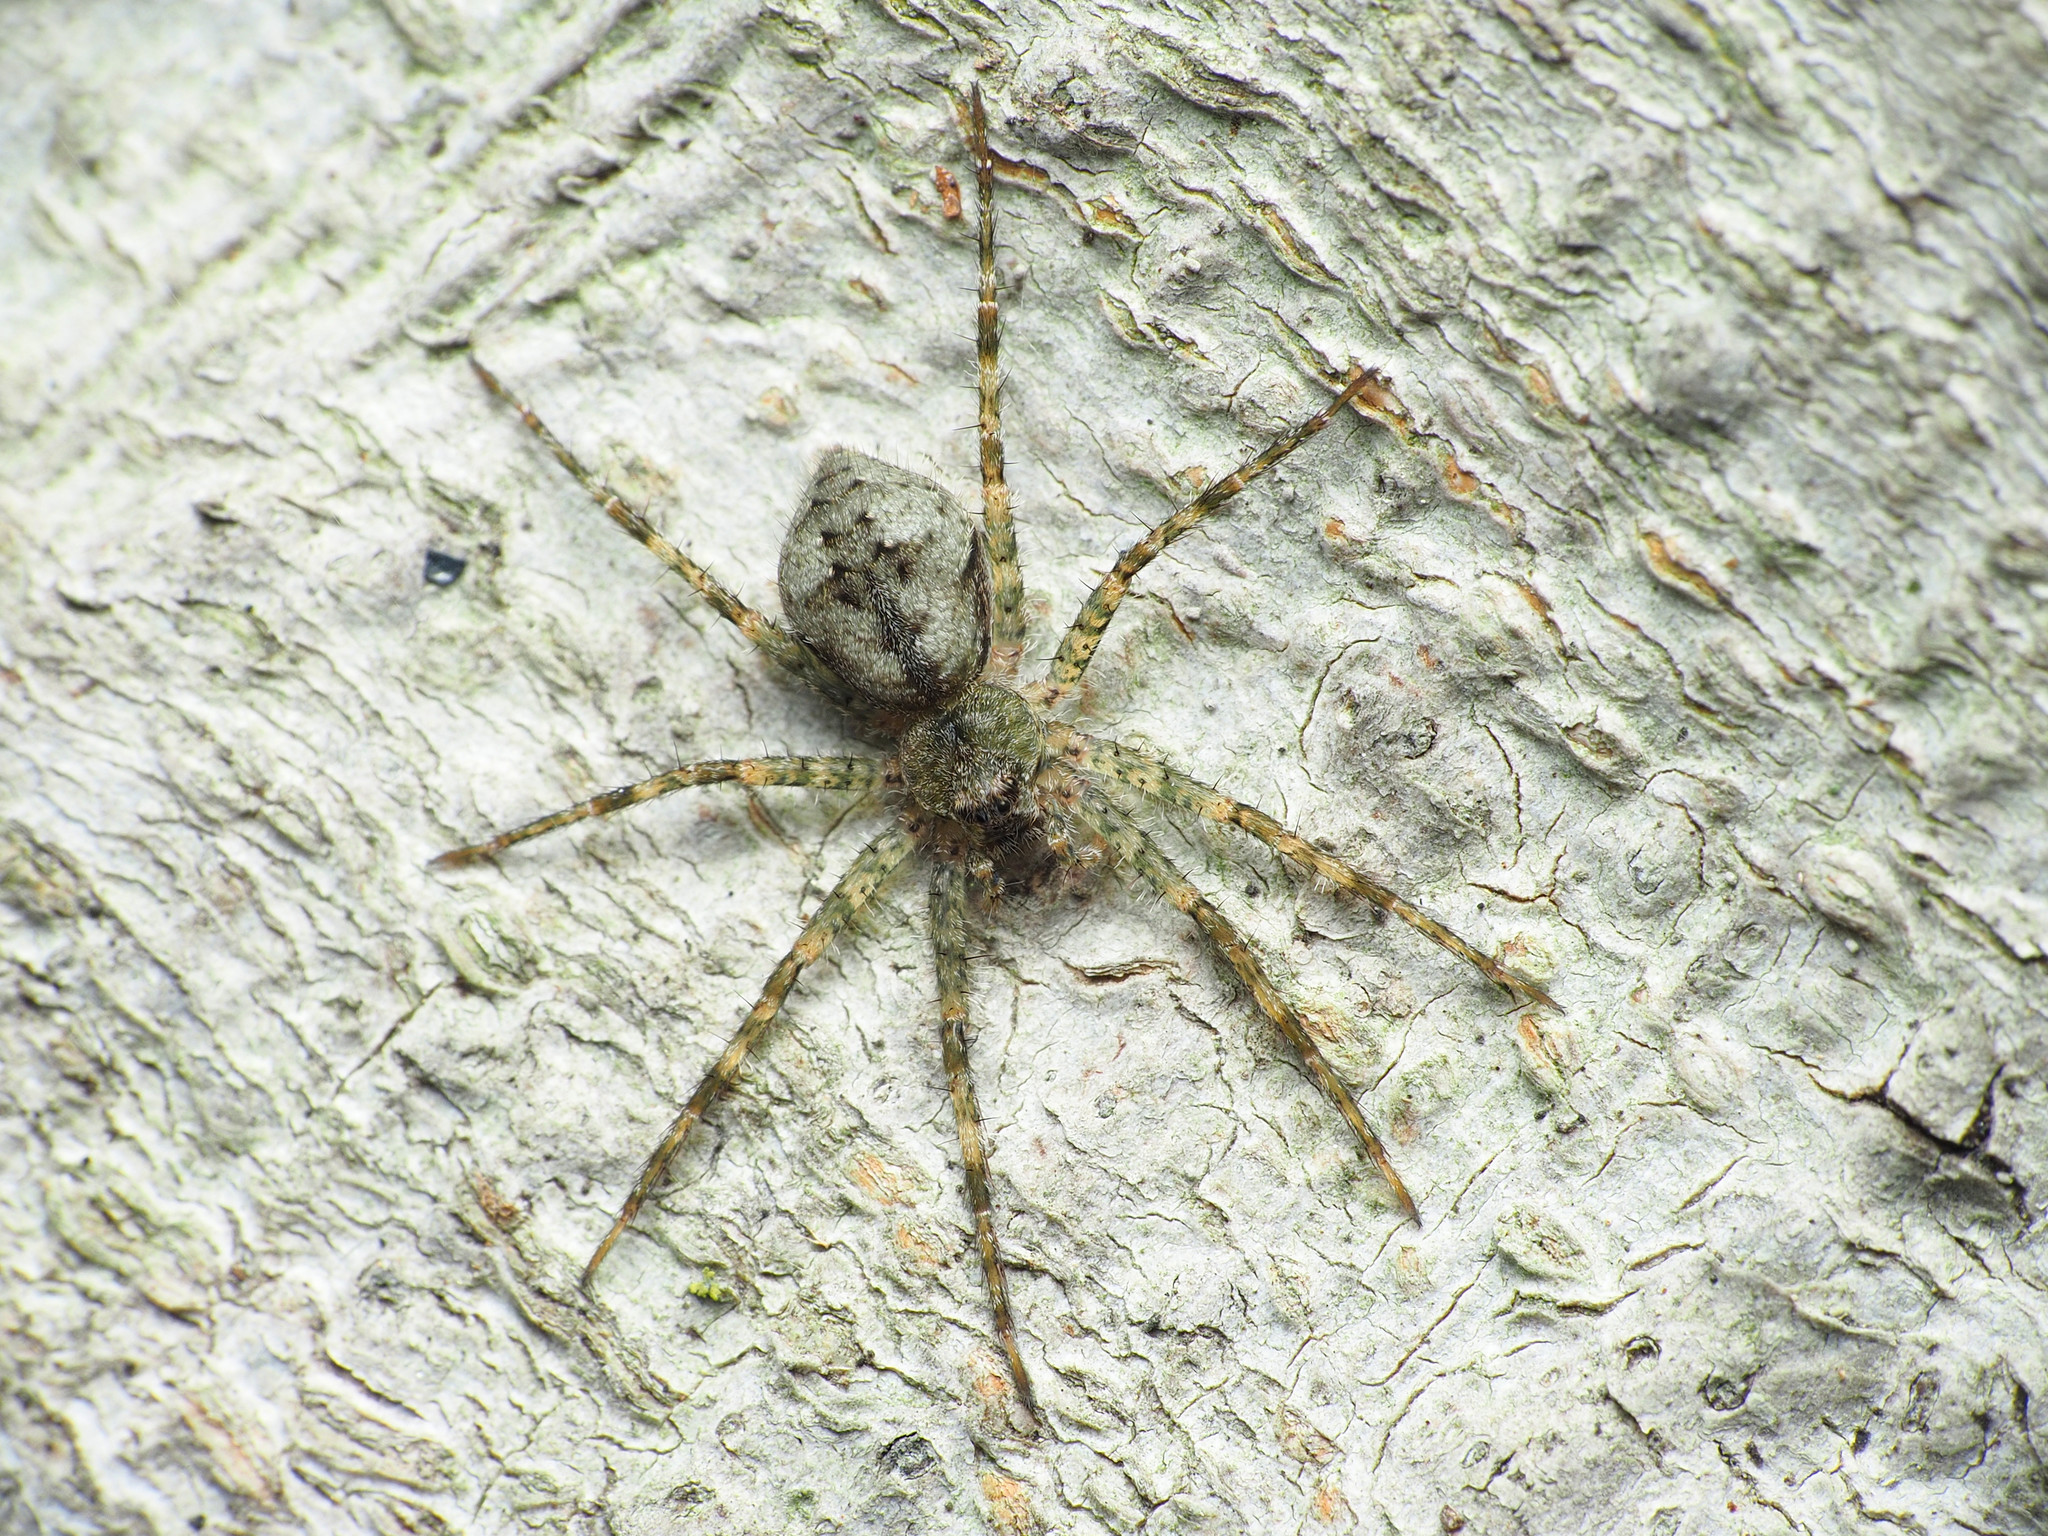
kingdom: Animalia
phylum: Arthropoda
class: Arachnida
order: Araneae
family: Pisauridae
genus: Dolomedes
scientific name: Dolomedes albineus
